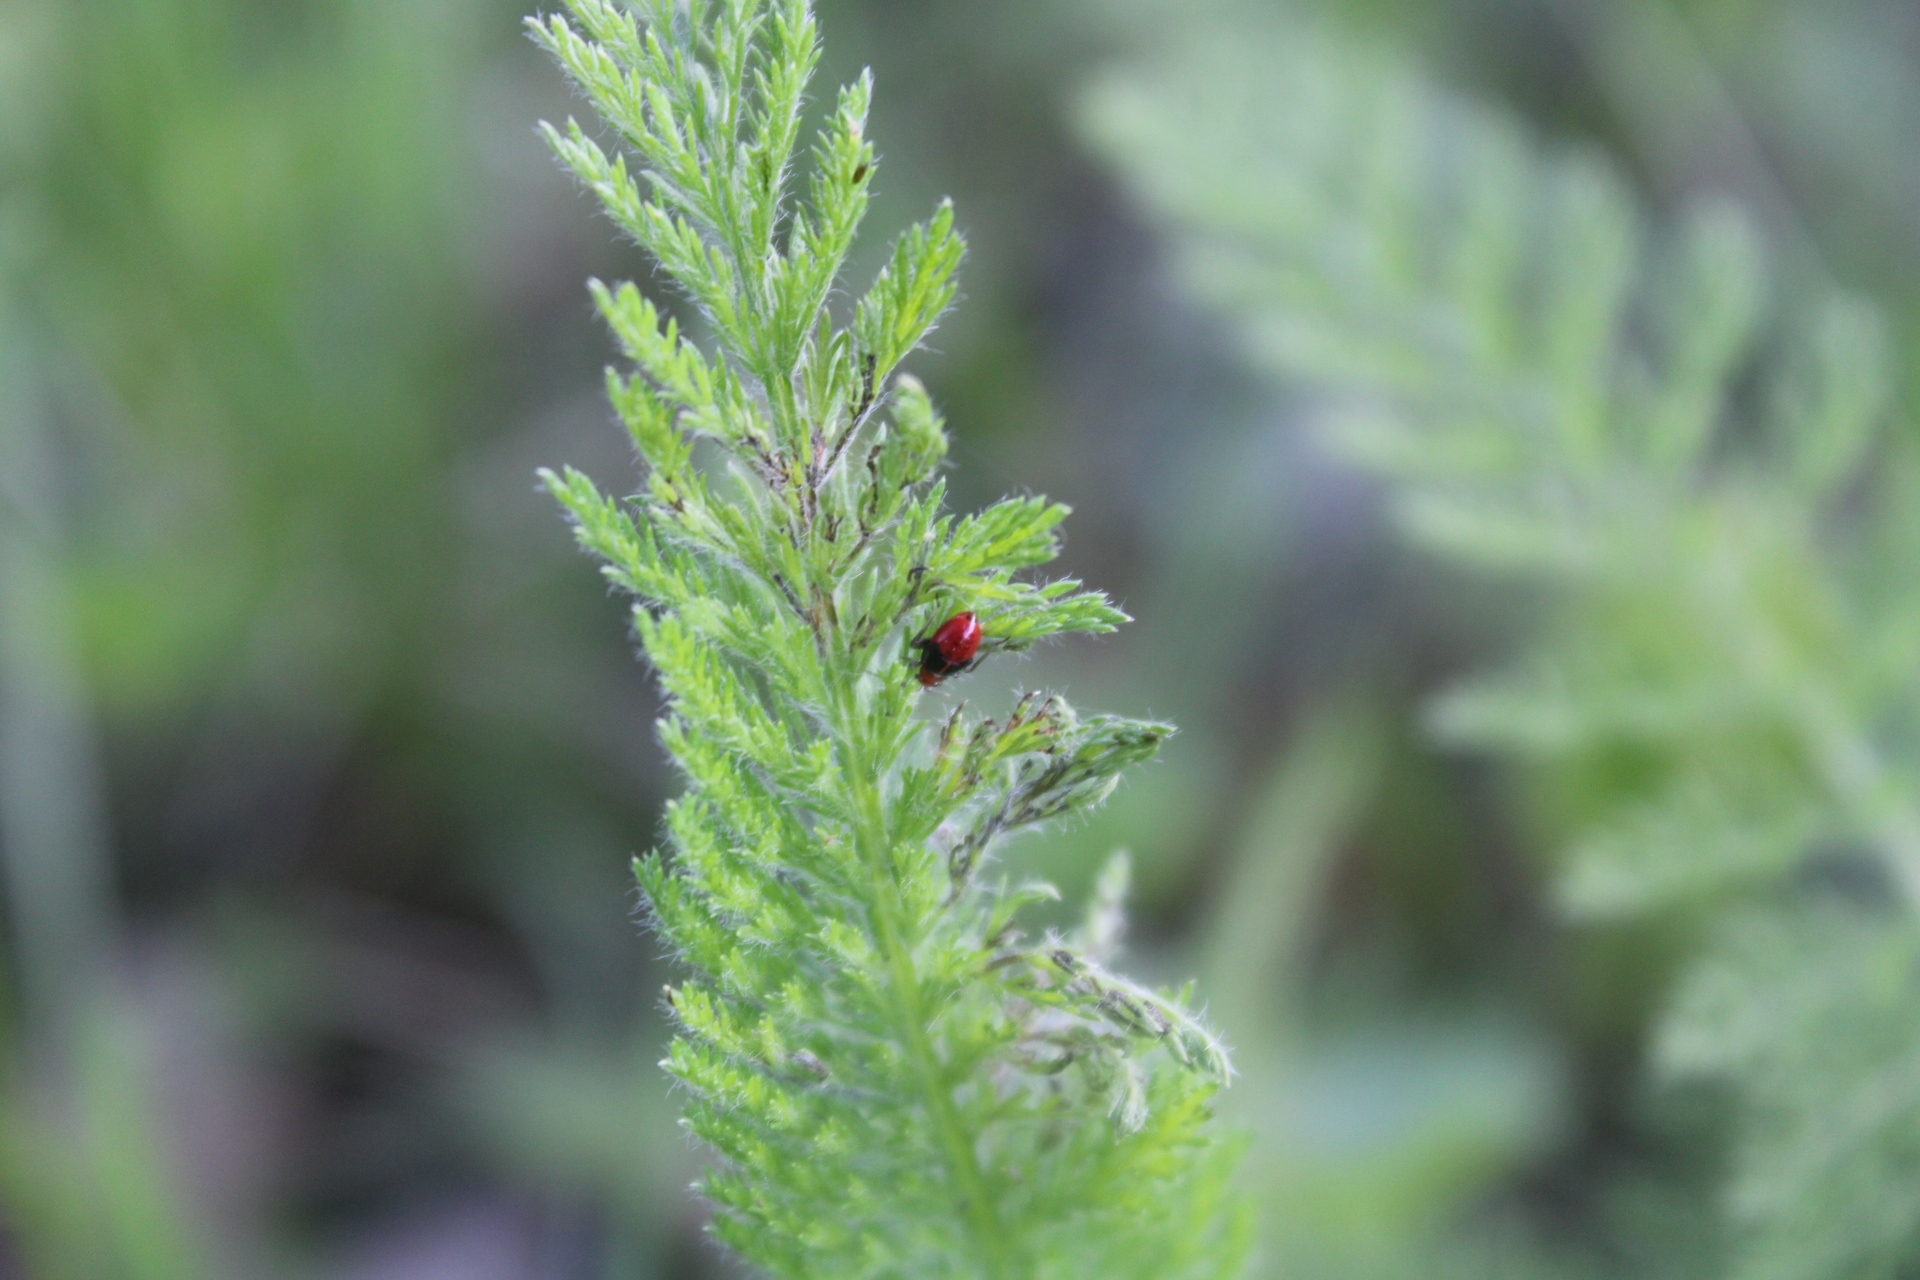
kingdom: Animalia
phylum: Arthropoda
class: Insecta
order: Hemiptera
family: Miridae
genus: Poecilocapsus
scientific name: Poecilocapsus lineatus
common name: Four-lined plant bug
